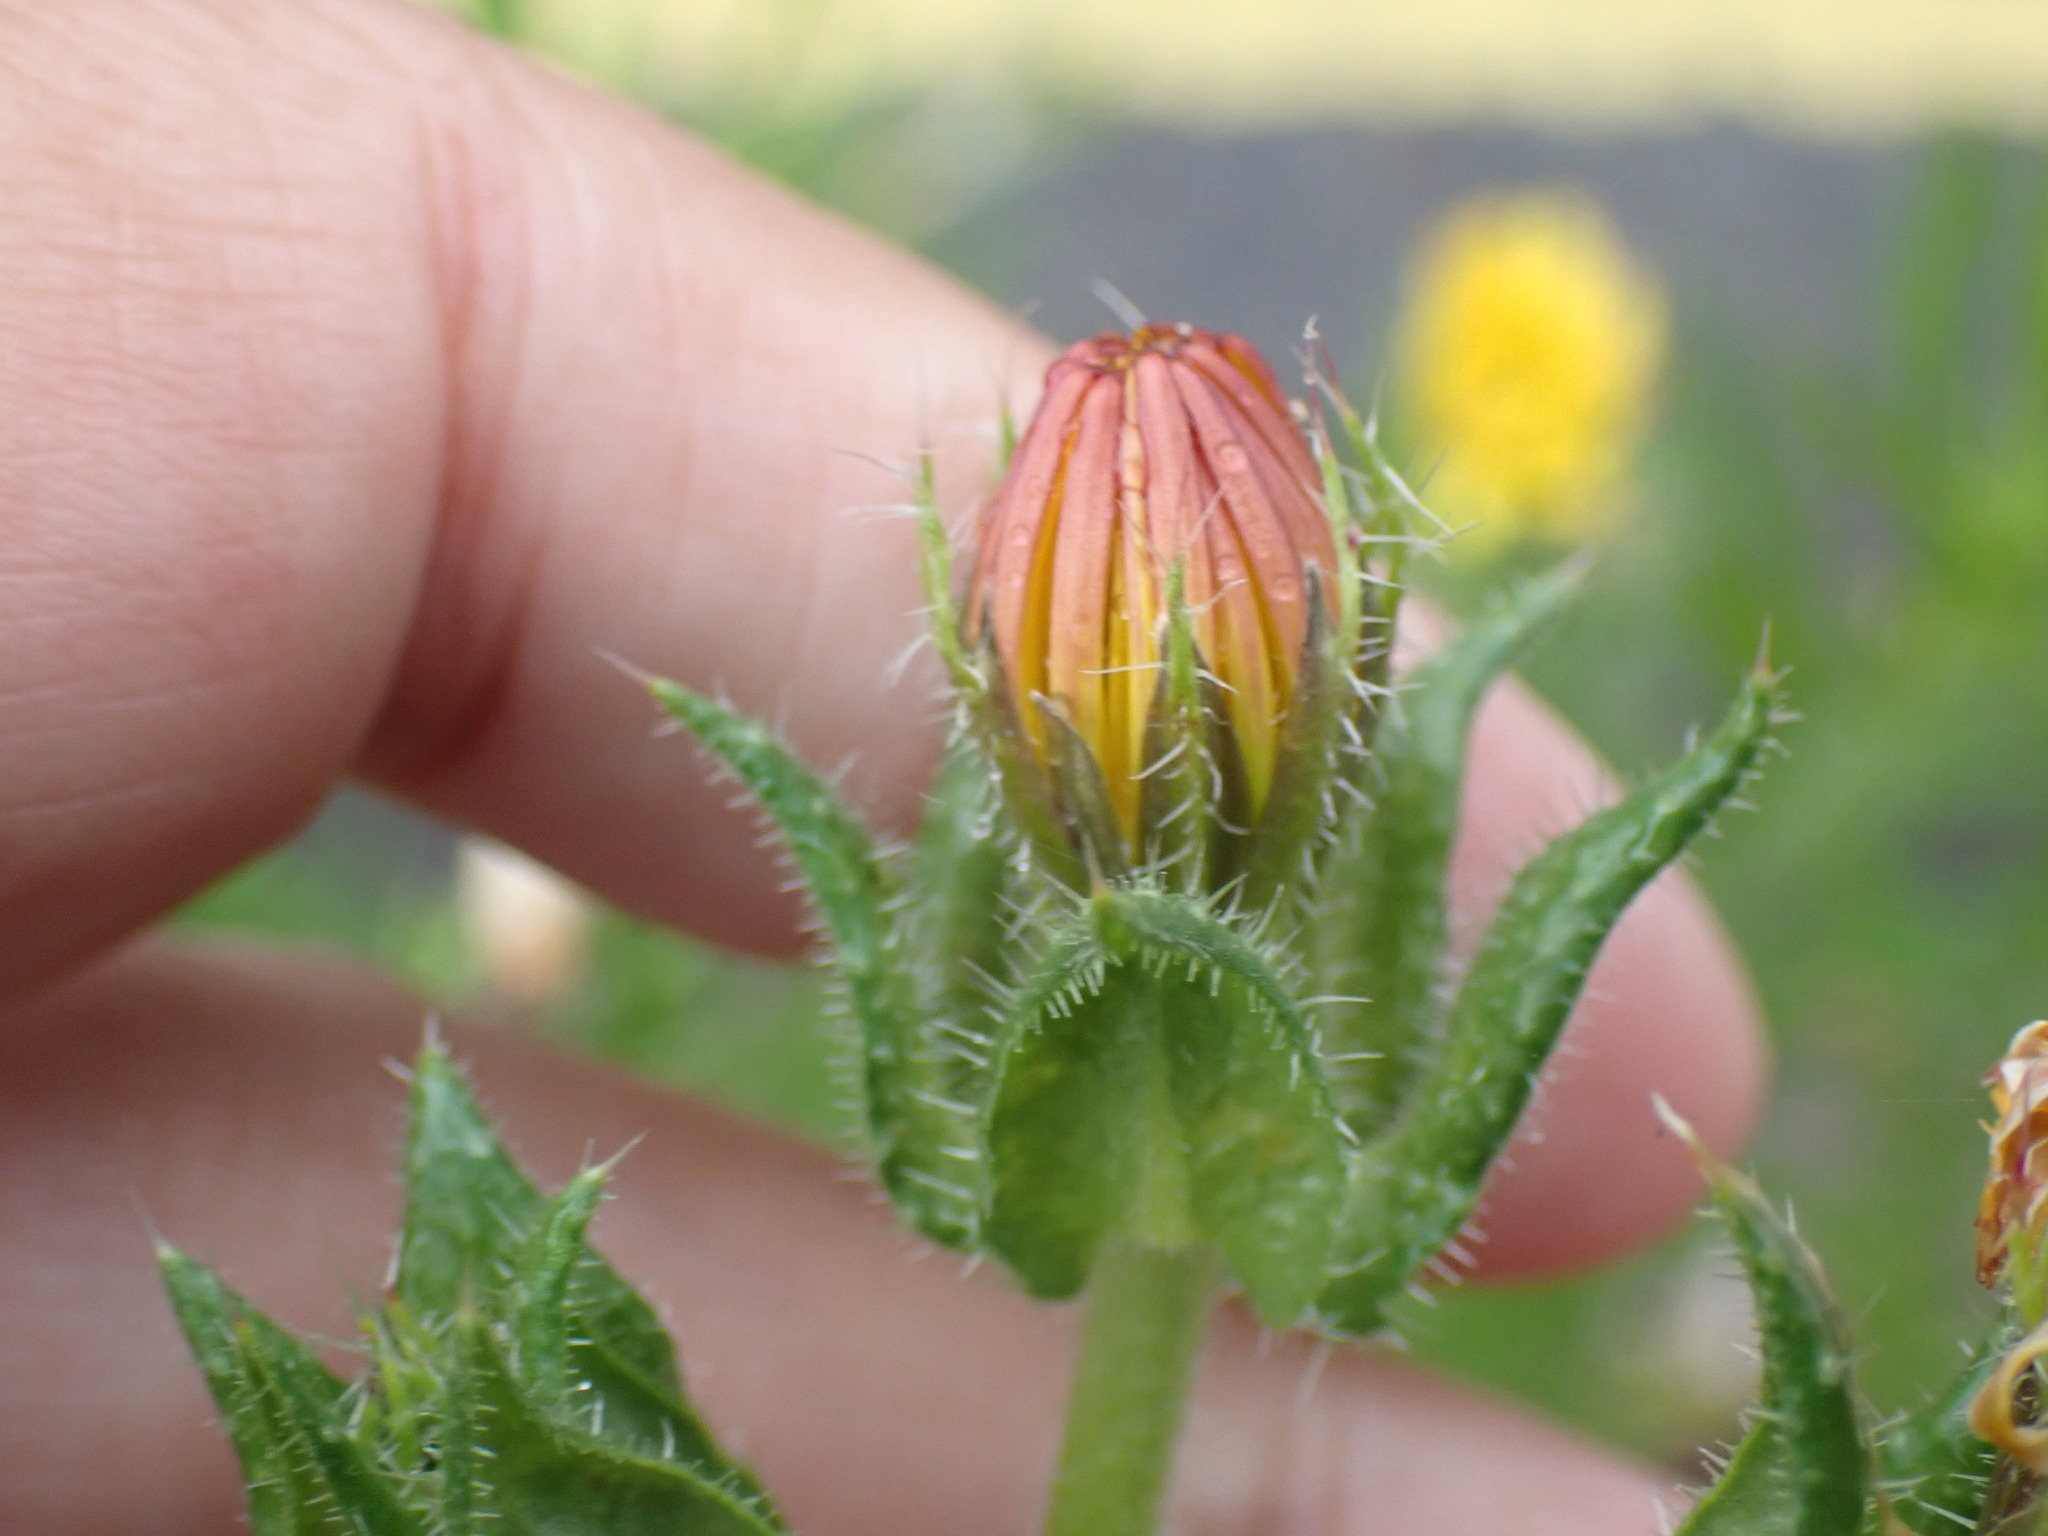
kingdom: Plantae
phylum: Tracheophyta
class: Magnoliopsida
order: Asterales
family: Asteraceae
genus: Helminthotheca
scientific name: Helminthotheca echioides
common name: Ox-tongue
